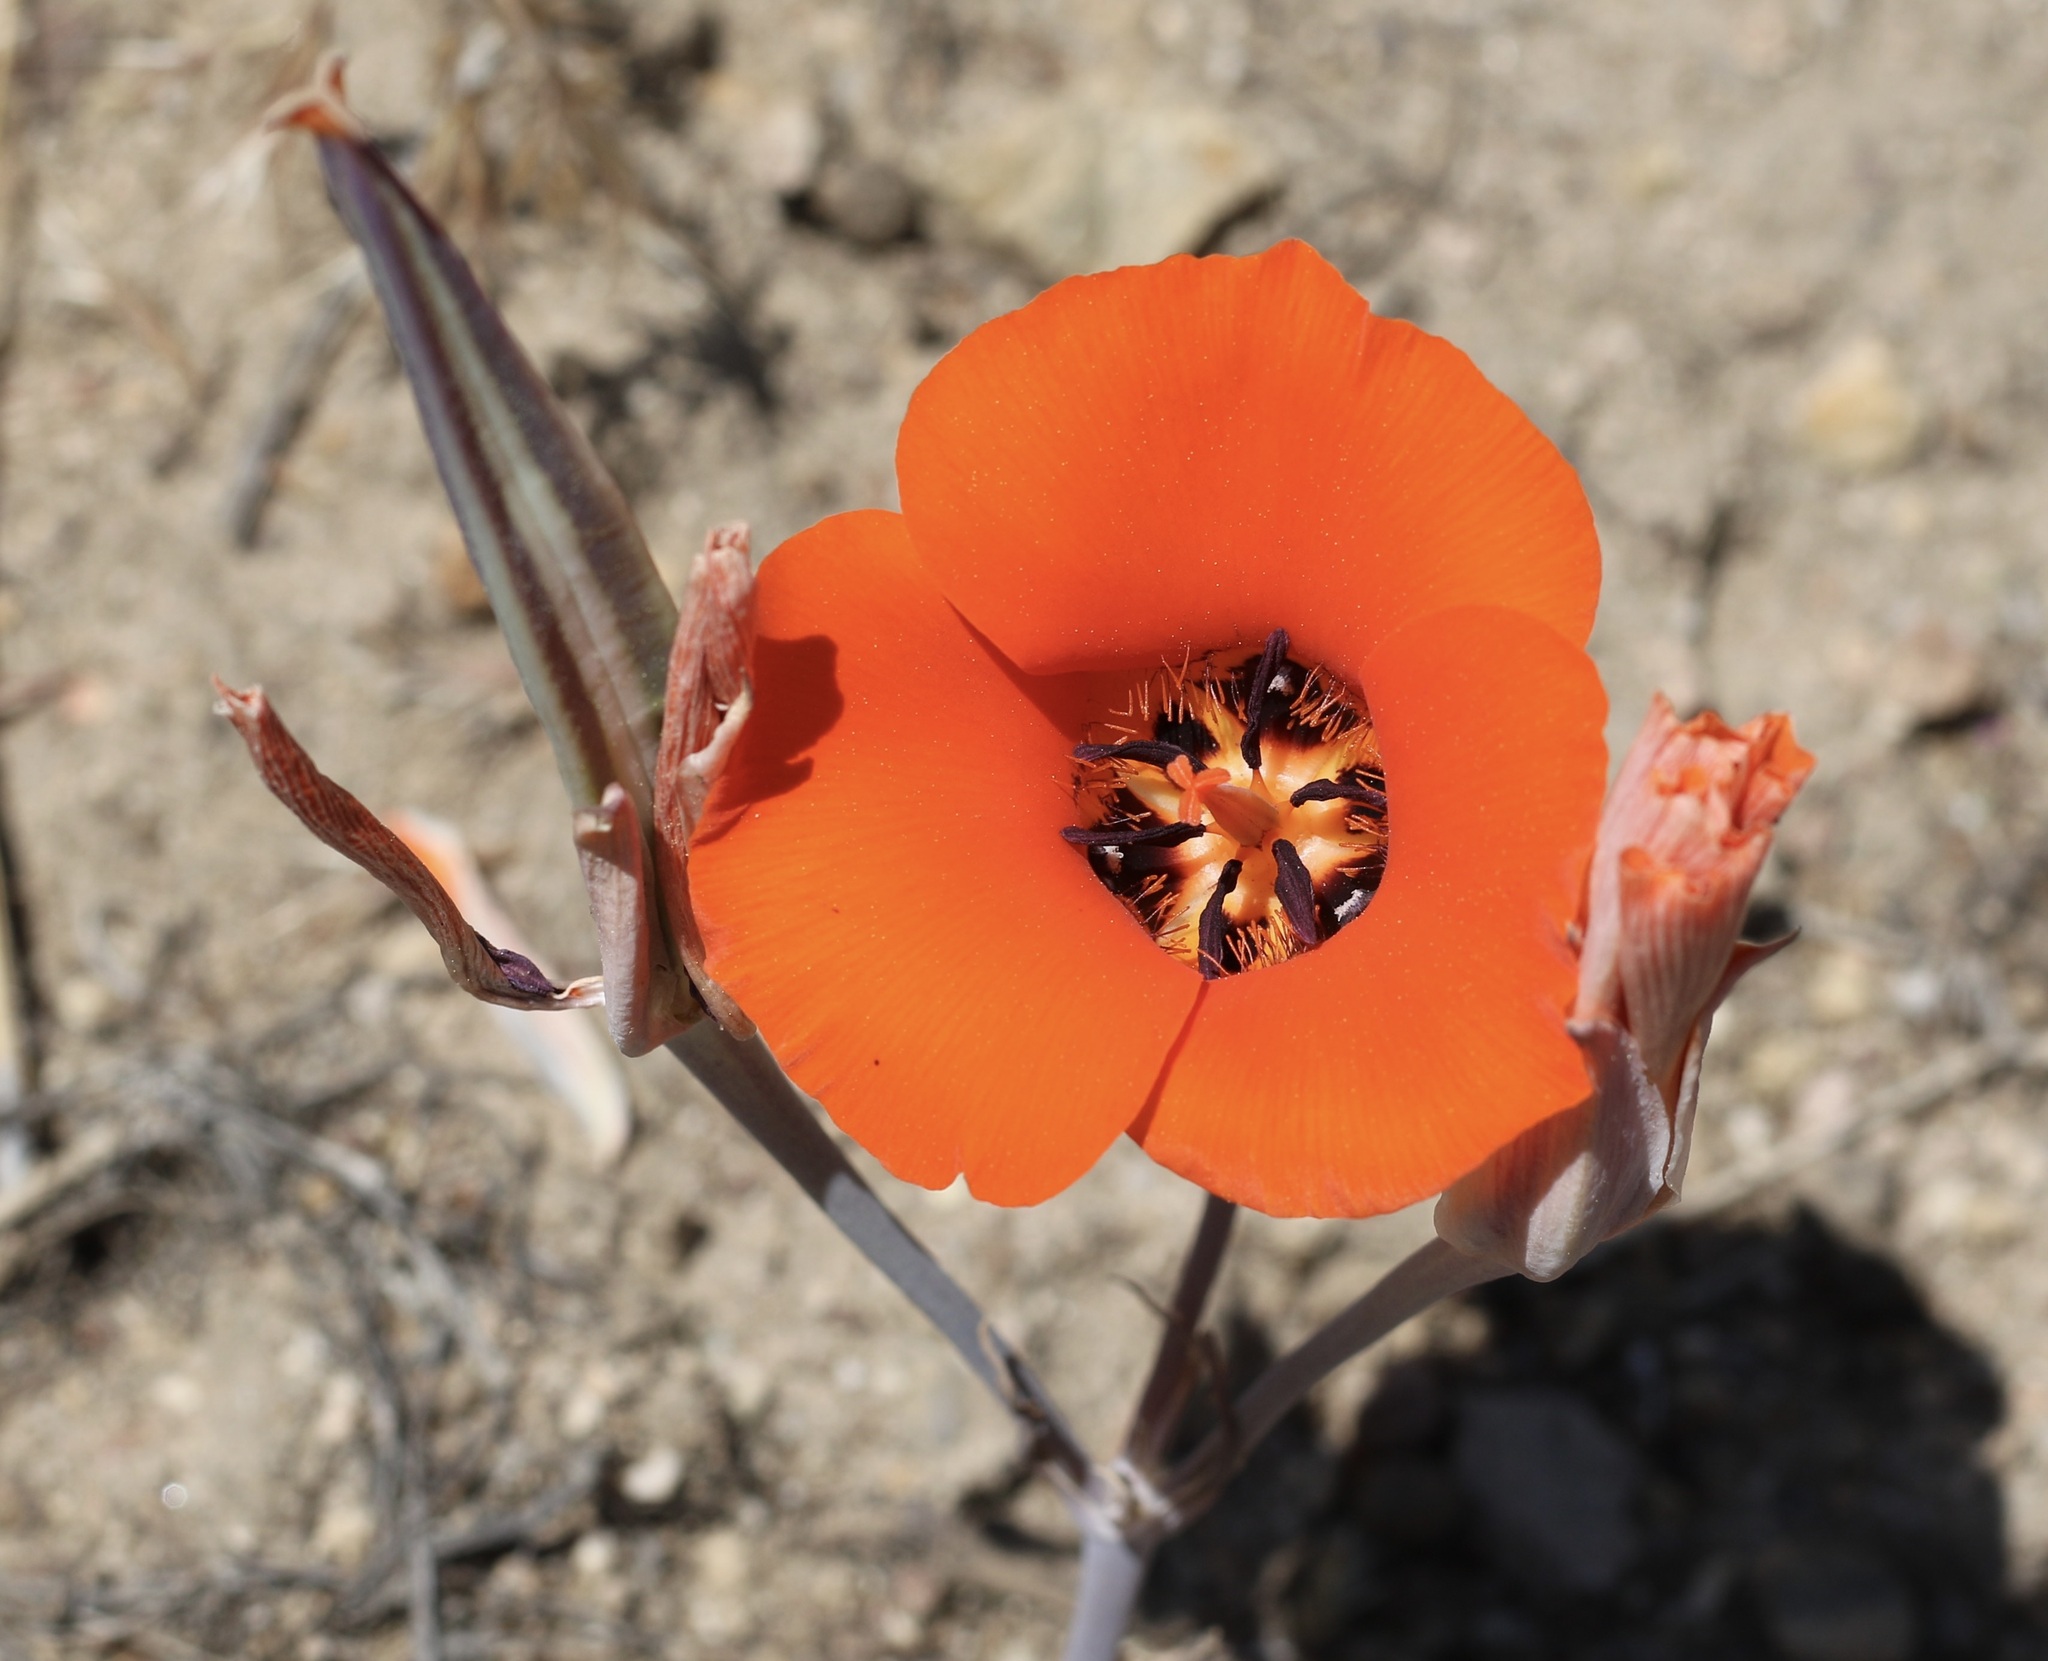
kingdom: Plantae
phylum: Tracheophyta
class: Liliopsida
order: Liliales
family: Liliaceae
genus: Calochortus
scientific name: Calochortus kennedyi
